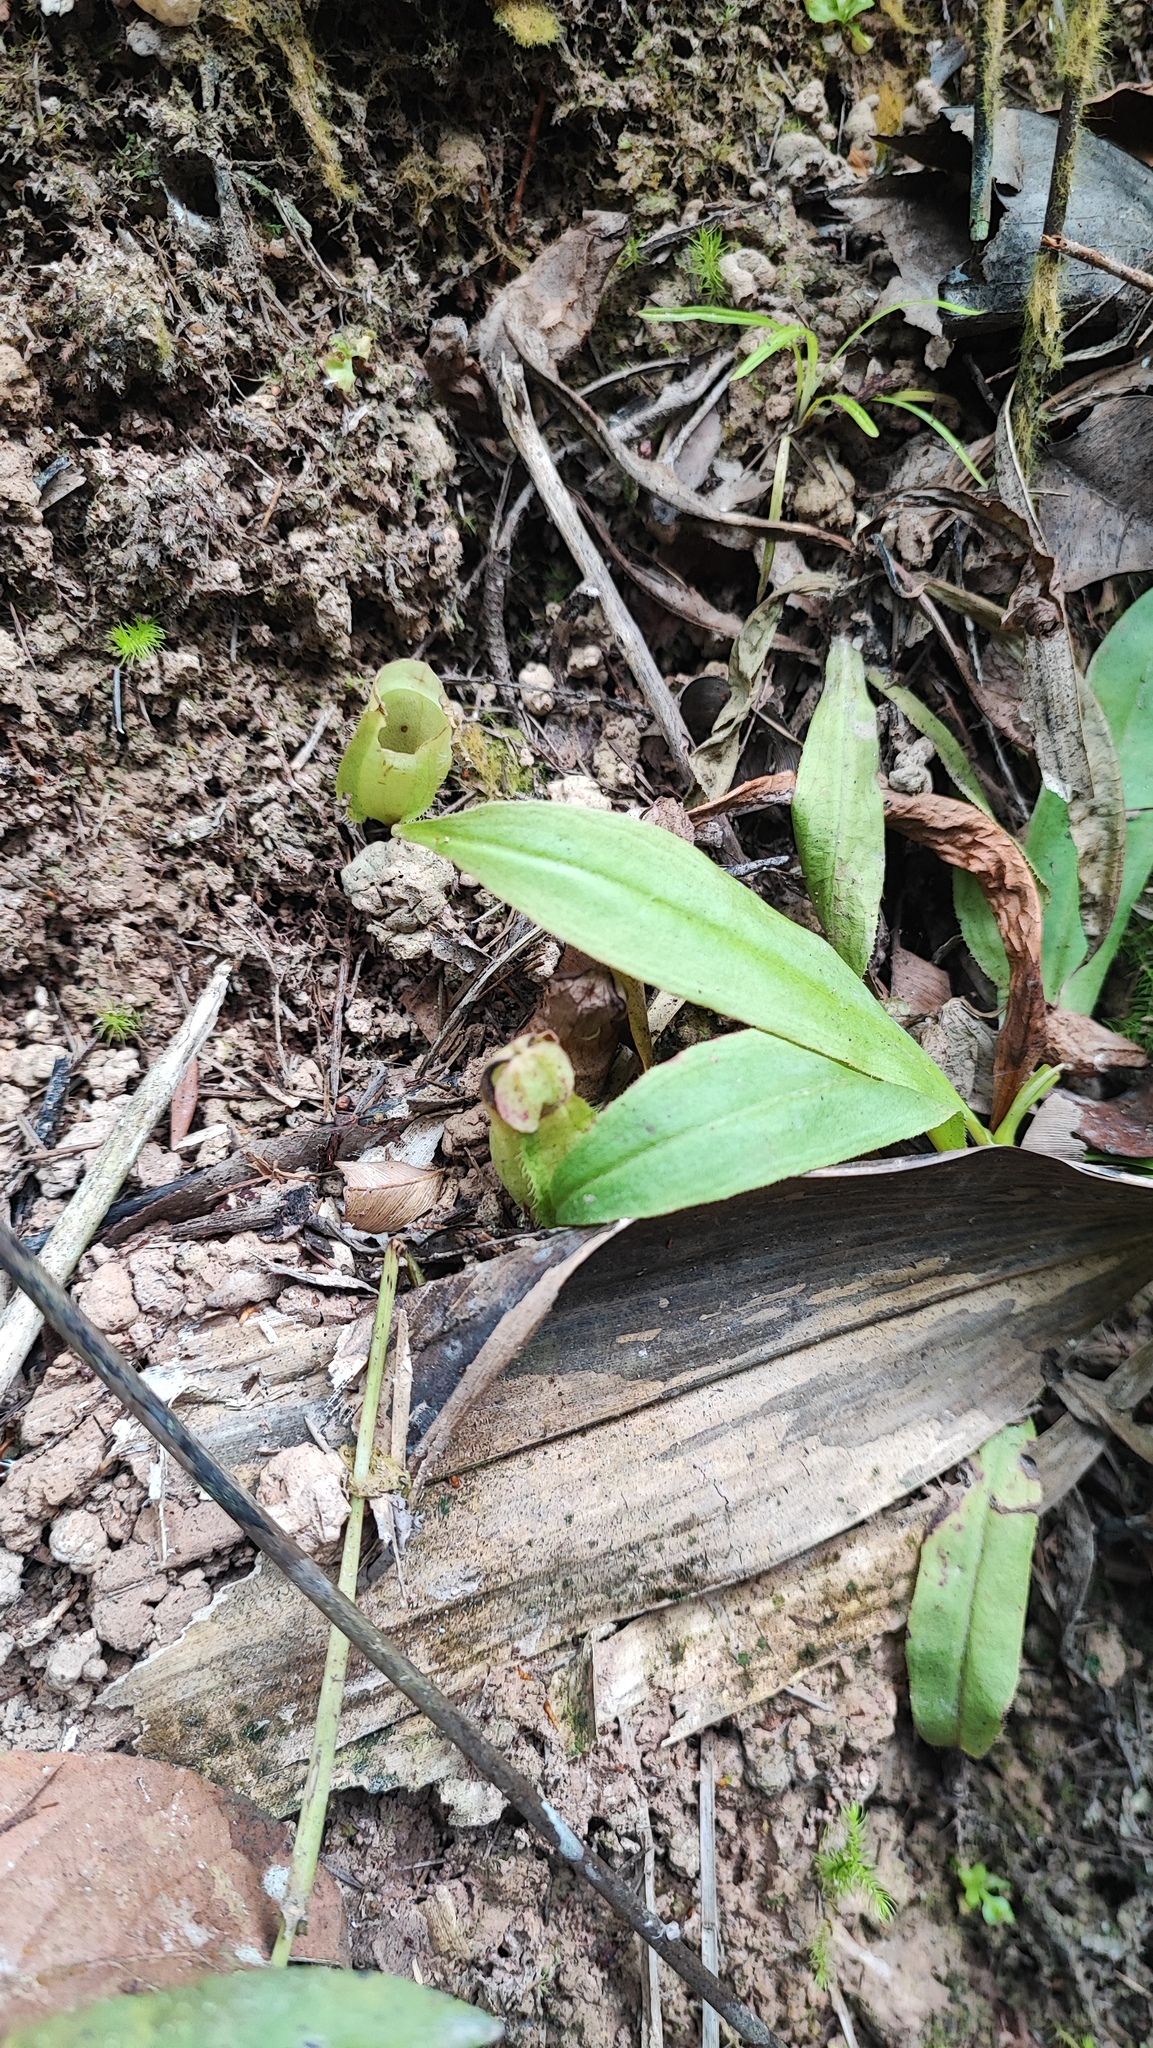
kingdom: Plantae
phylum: Tracheophyta
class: Magnoliopsida
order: Caryophyllales
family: Nepenthaceae
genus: Nepenthes
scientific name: Nepenthes mirabilis
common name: Tropical pitcherplant
